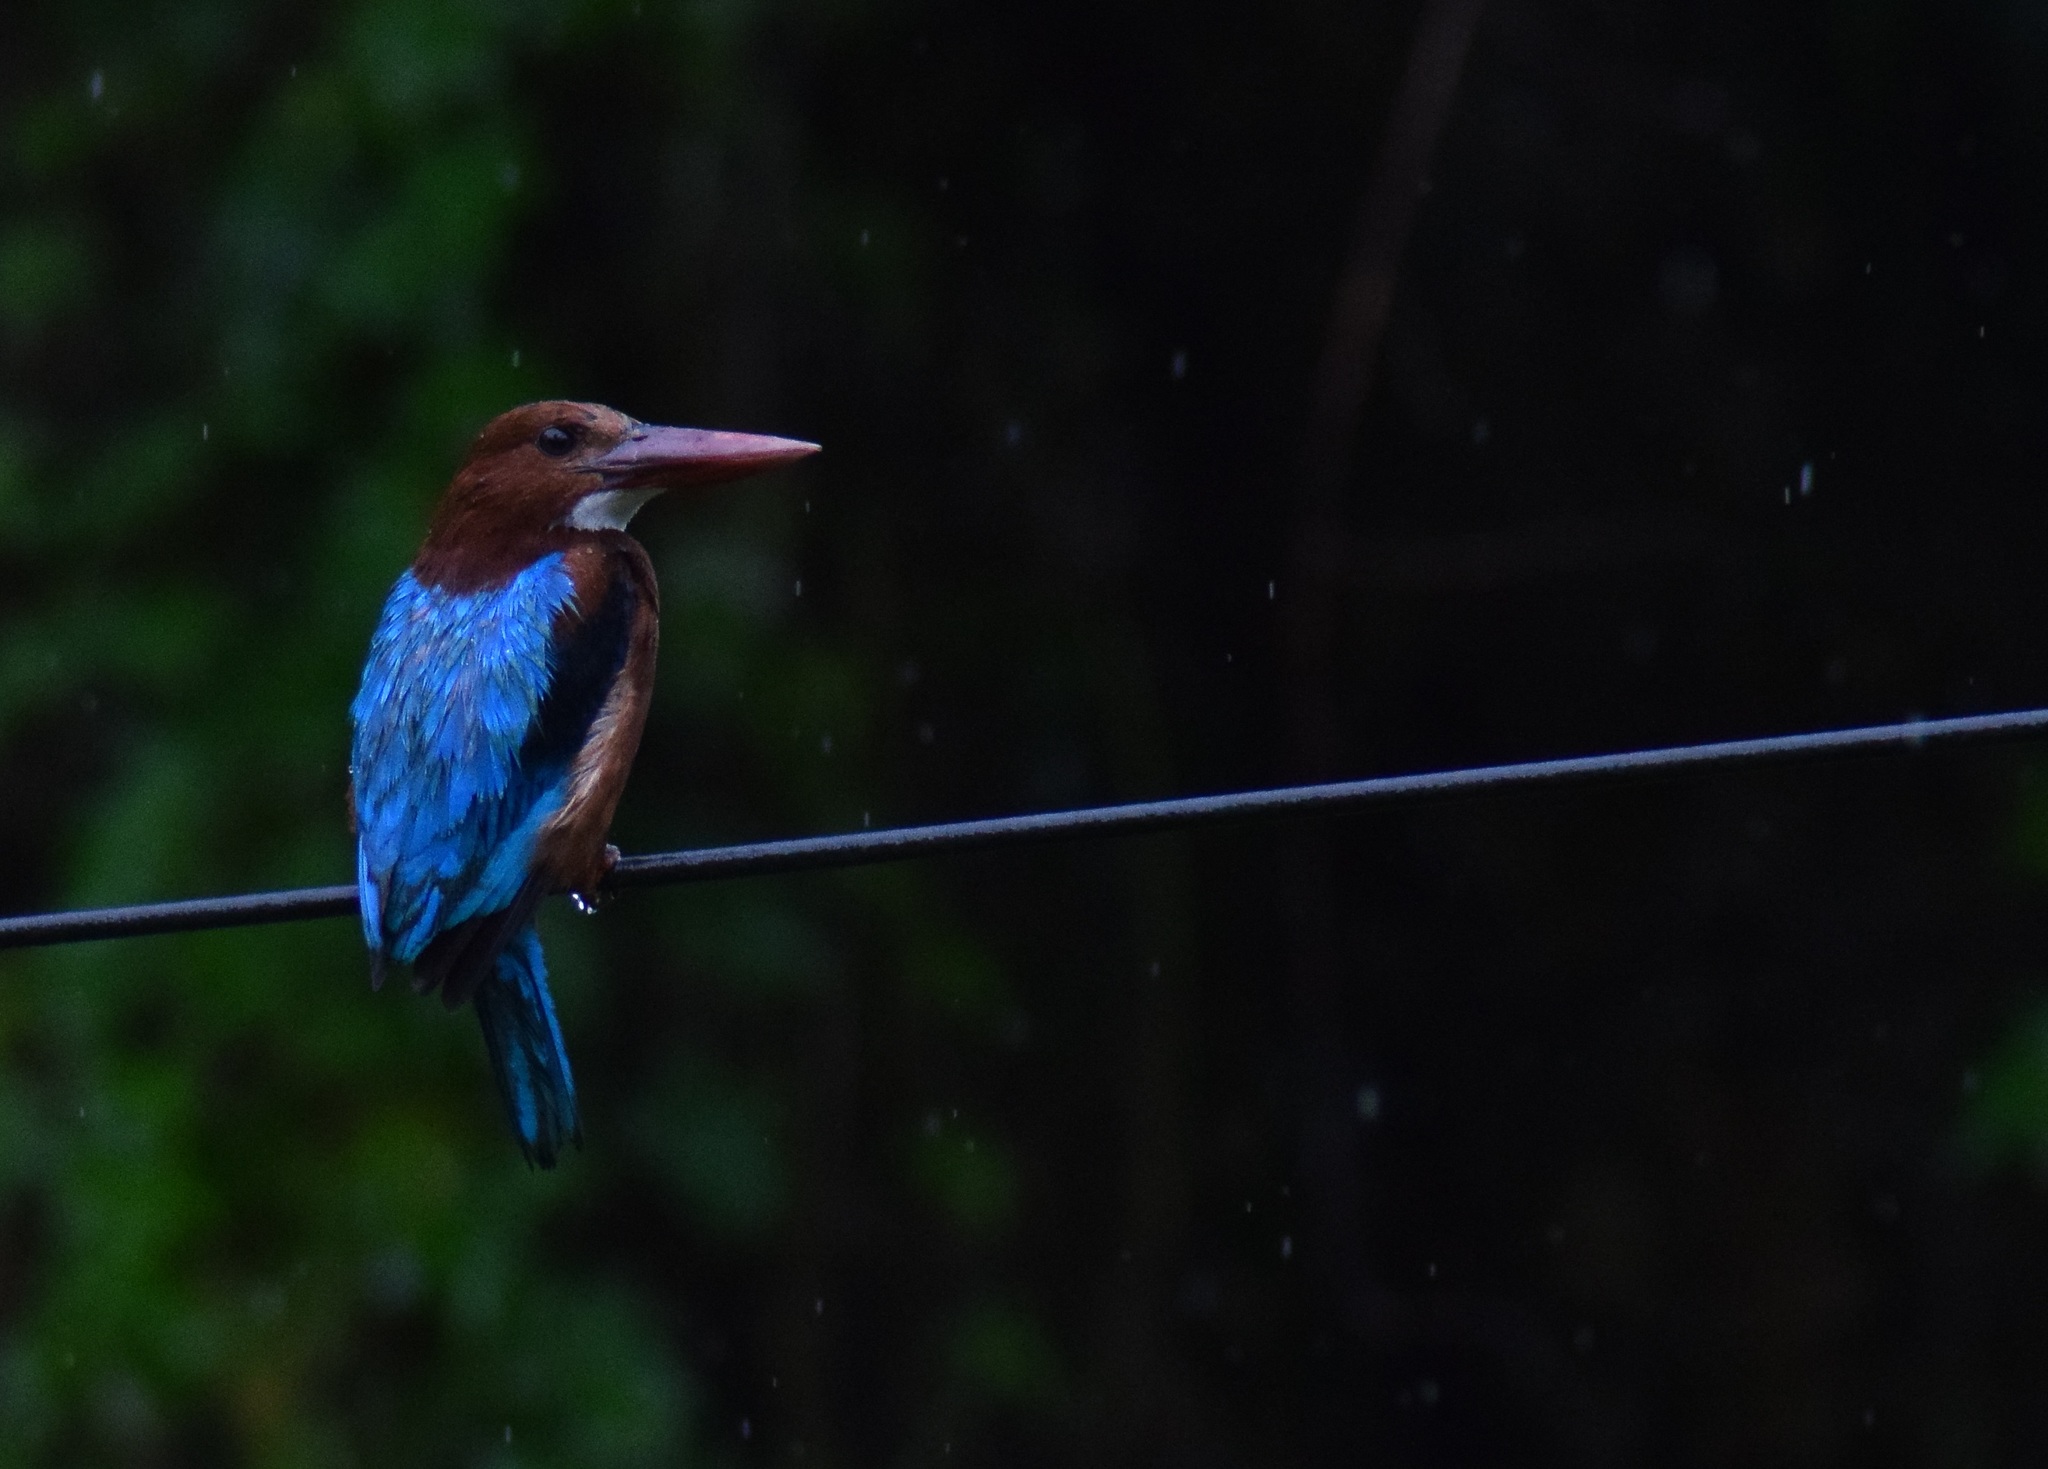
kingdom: Animalia
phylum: Chordata
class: Aves
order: Coraciiformes
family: Alcedinidae
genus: Halcyon
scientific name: Halcyon smyrnensis
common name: White-throated kingfisher
